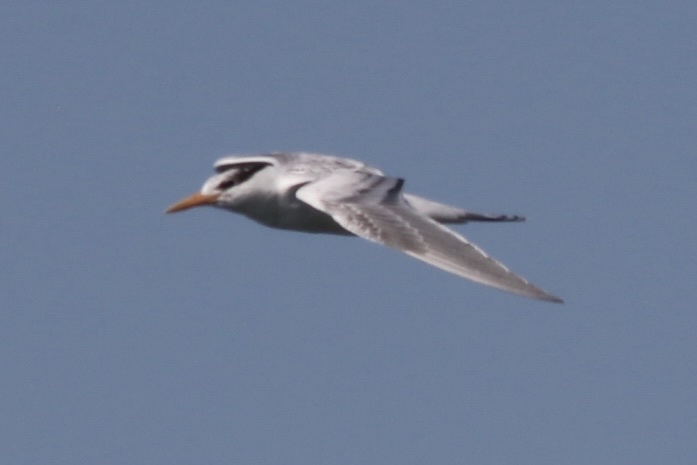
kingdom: Animalia
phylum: Chordata
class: Aves
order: Charadriiformes
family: Laridae
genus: Thalasseus
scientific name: Thalasseus maximus
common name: Royal tern
